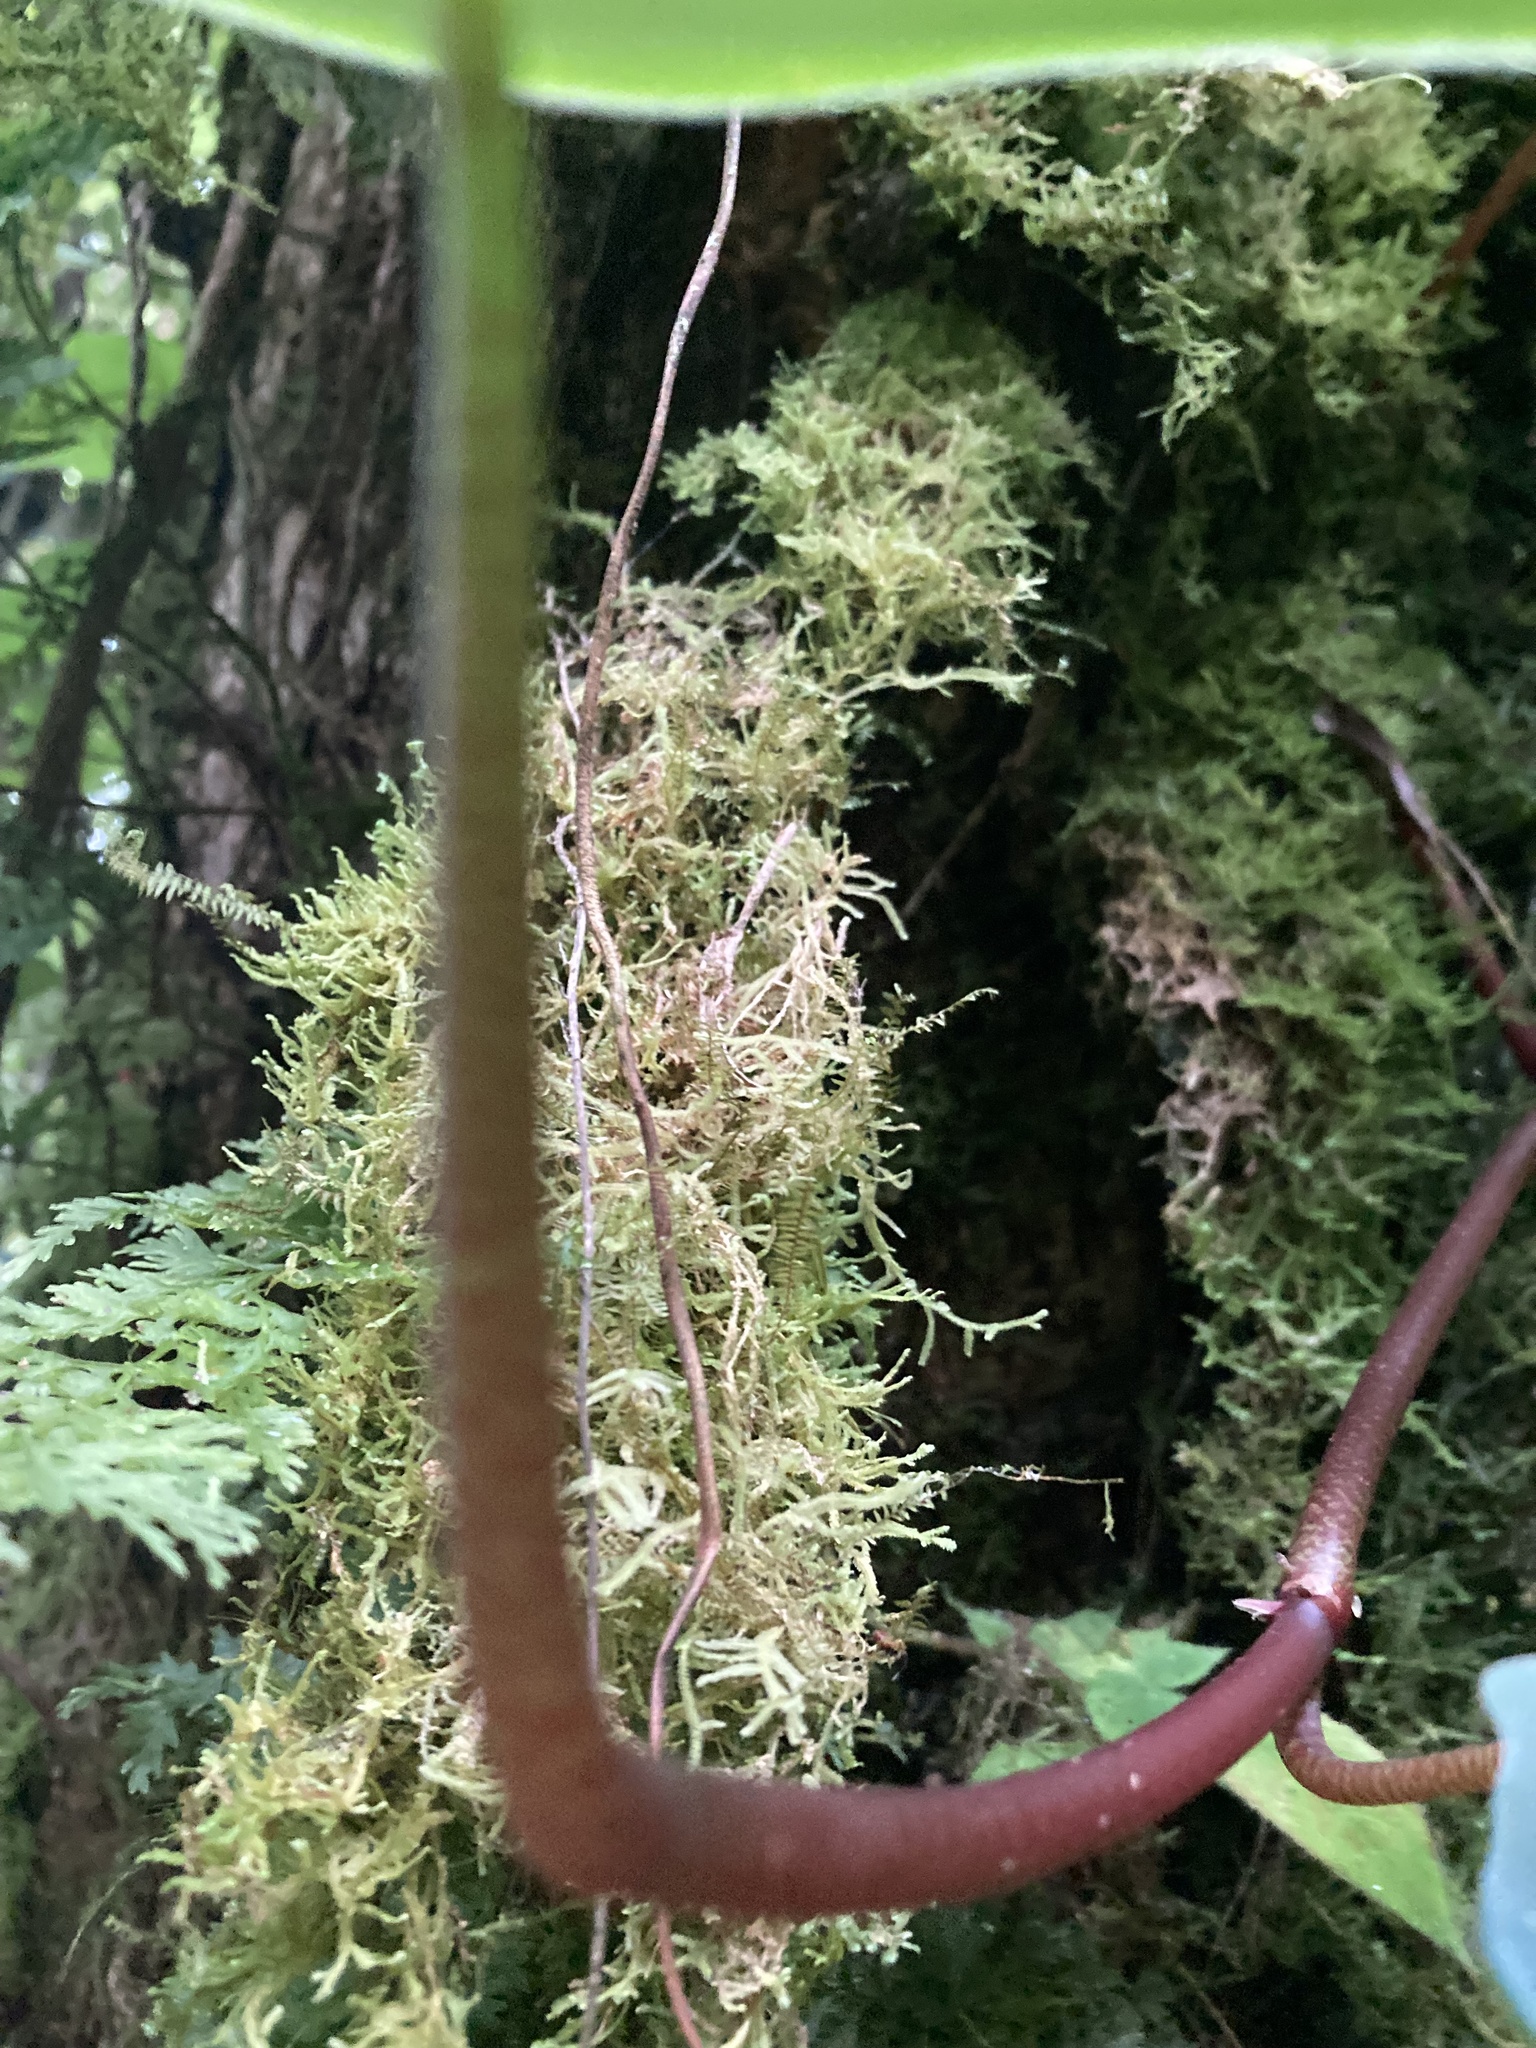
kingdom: Plantae
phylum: Tracheophyta
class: Magnoliopsida
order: Piperales
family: Piperaceae
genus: Peperomia
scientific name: Peperomia hernandiifolia
